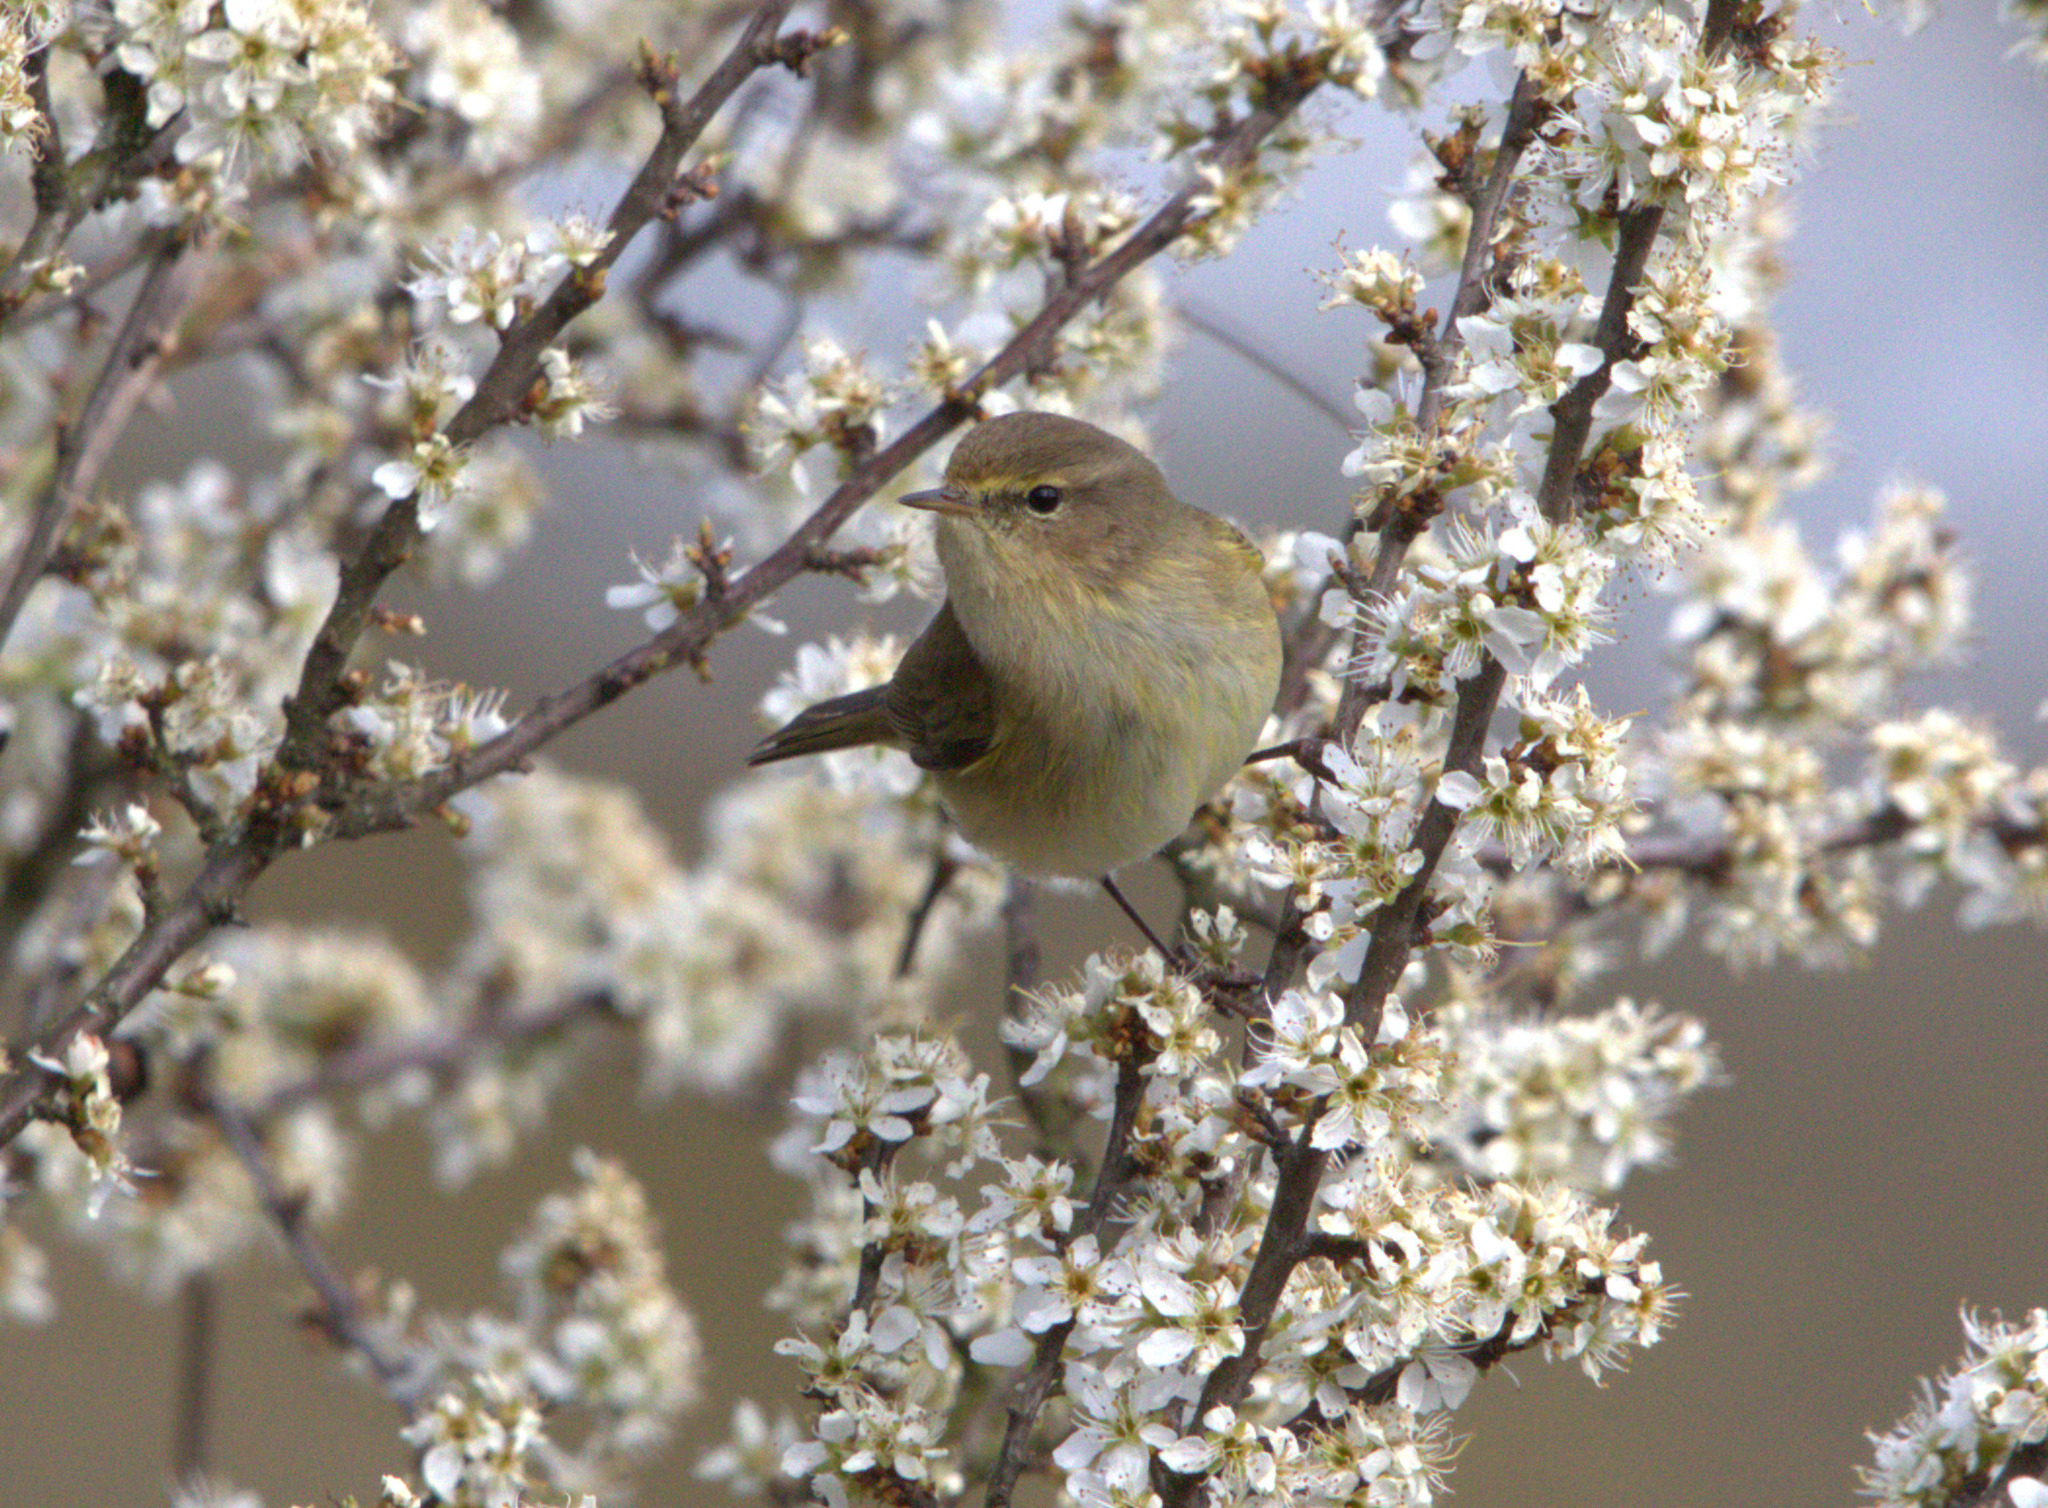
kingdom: Animalia
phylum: Chordata
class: Aves
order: Passeriformes
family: Phylloscopidae
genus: Phylloscopus
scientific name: Phylloscopus collybita
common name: Common chiffchaff
